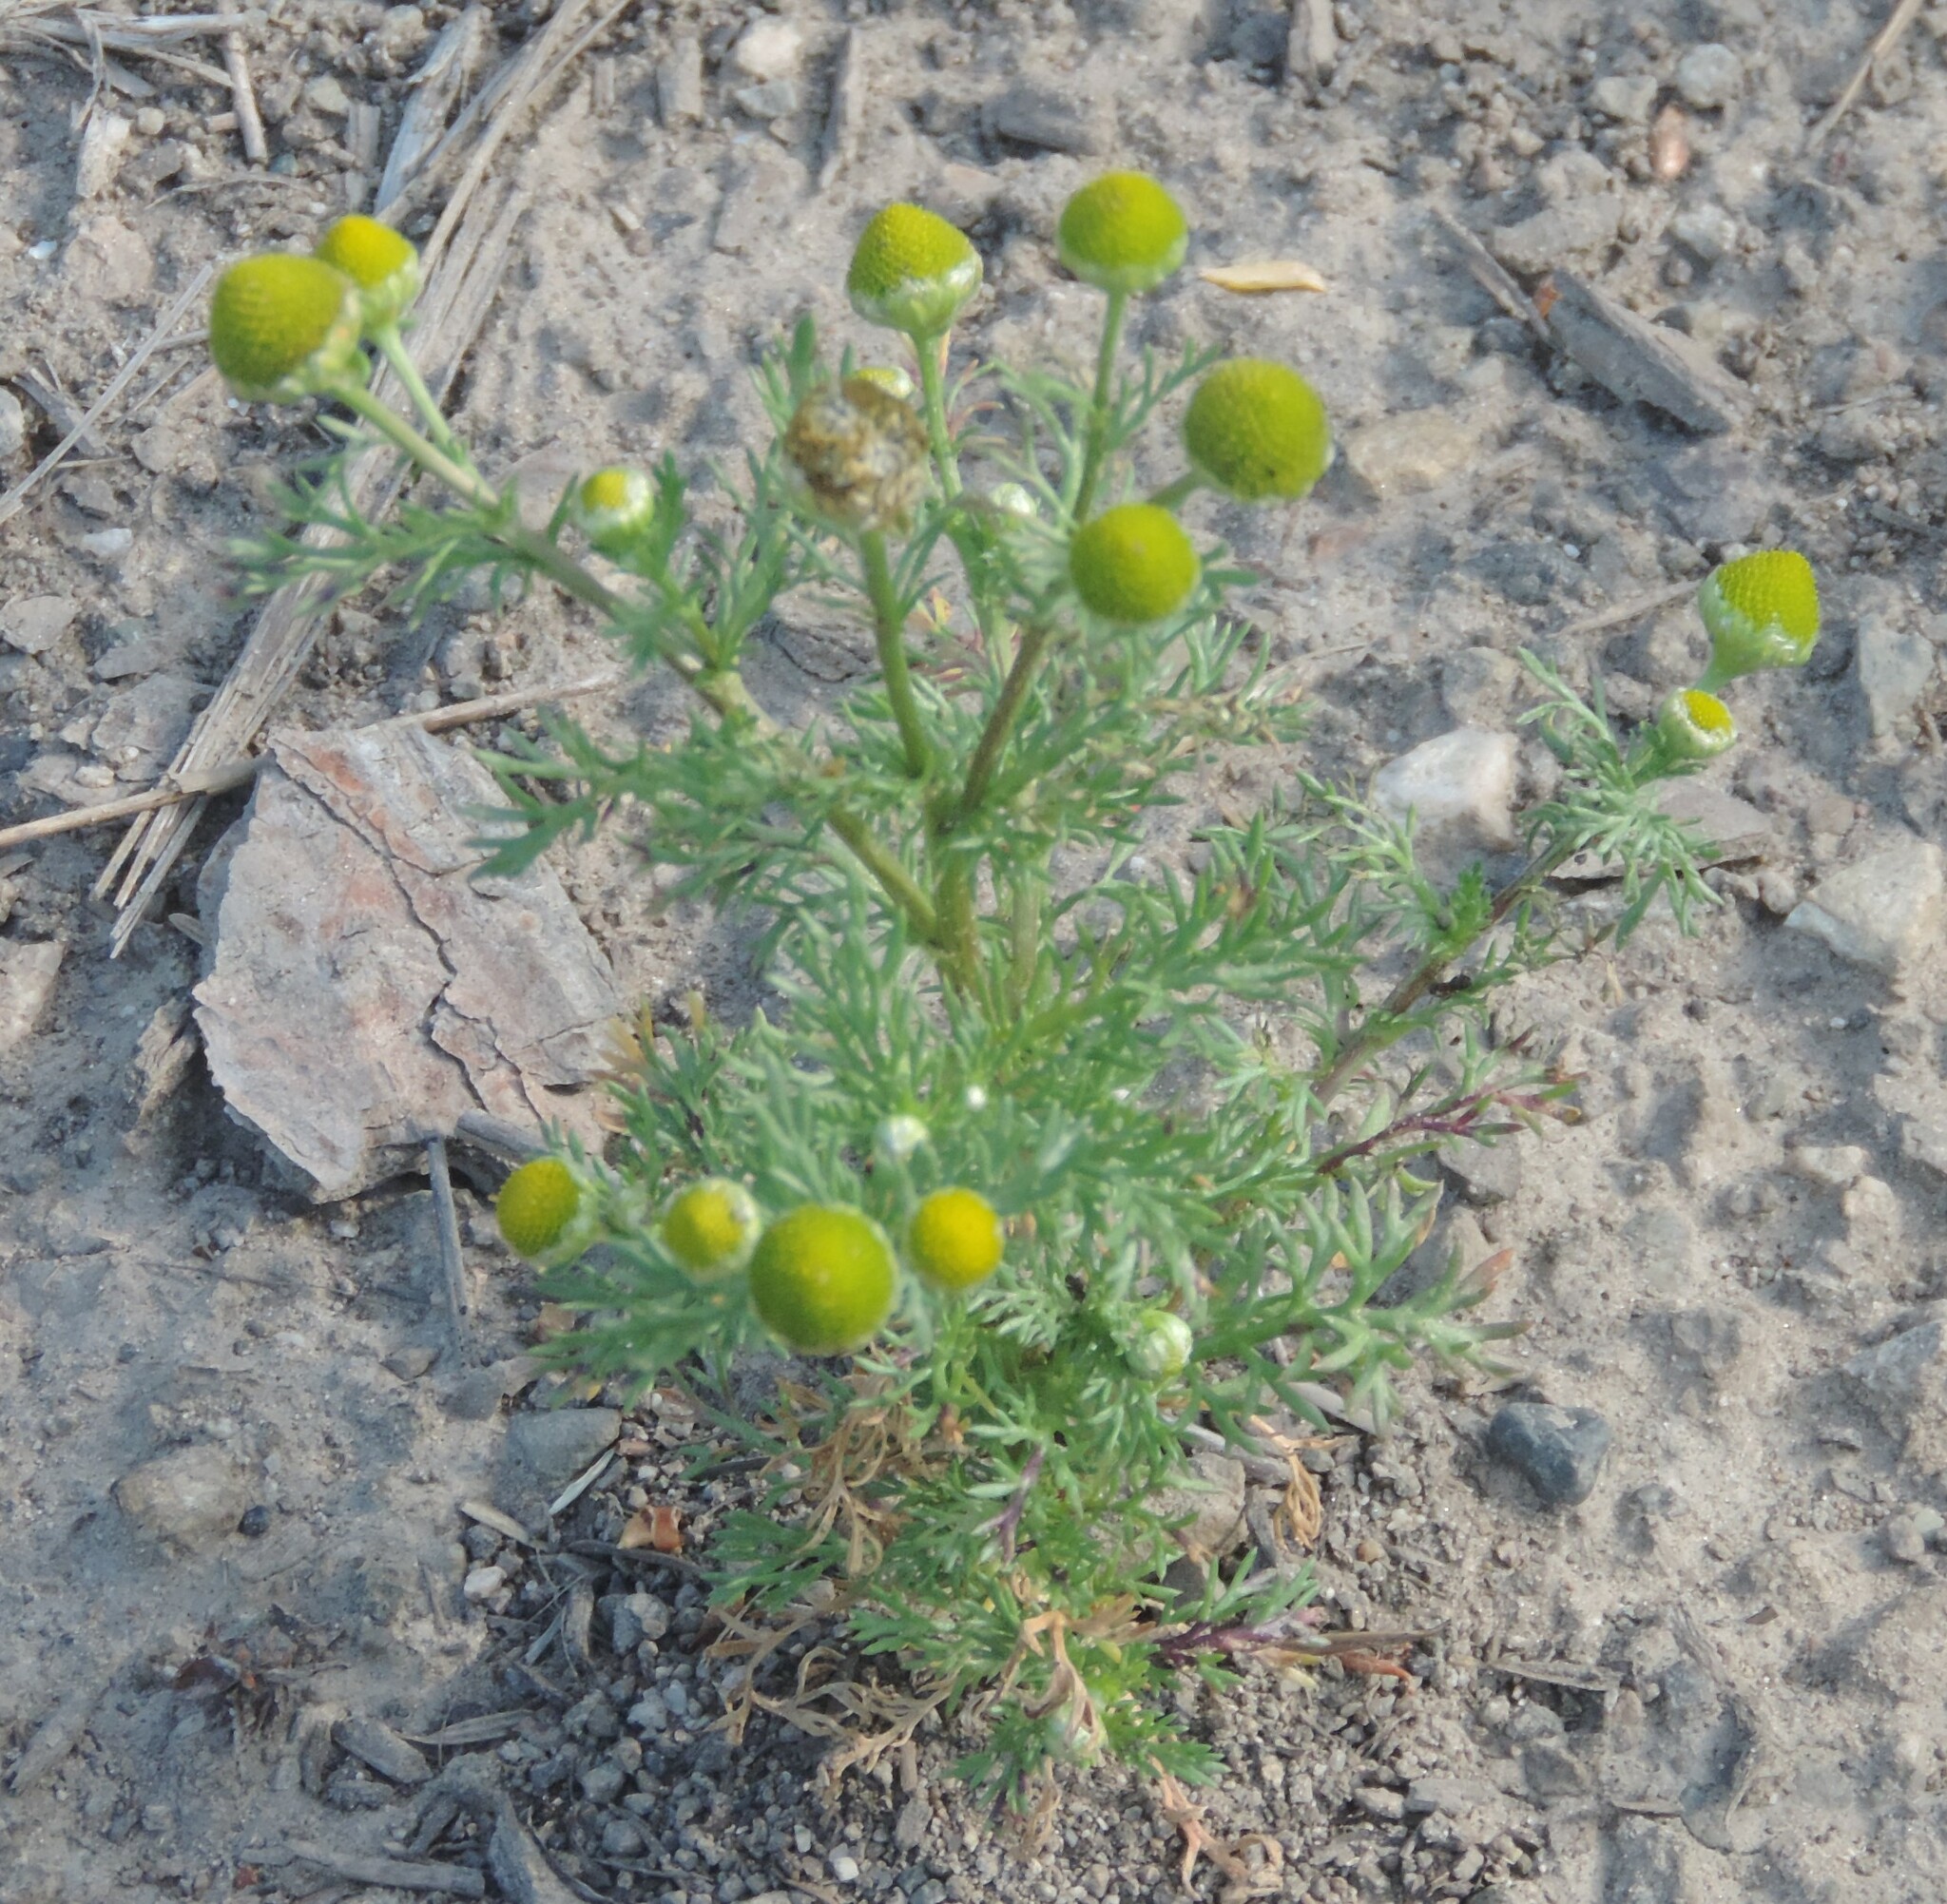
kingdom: Plantae
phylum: Tracheophyta
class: Magnoliopsida
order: Asterales
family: Asteraceae
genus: Matricaria
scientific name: Matricaria discoidea
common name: Disc mayweed
